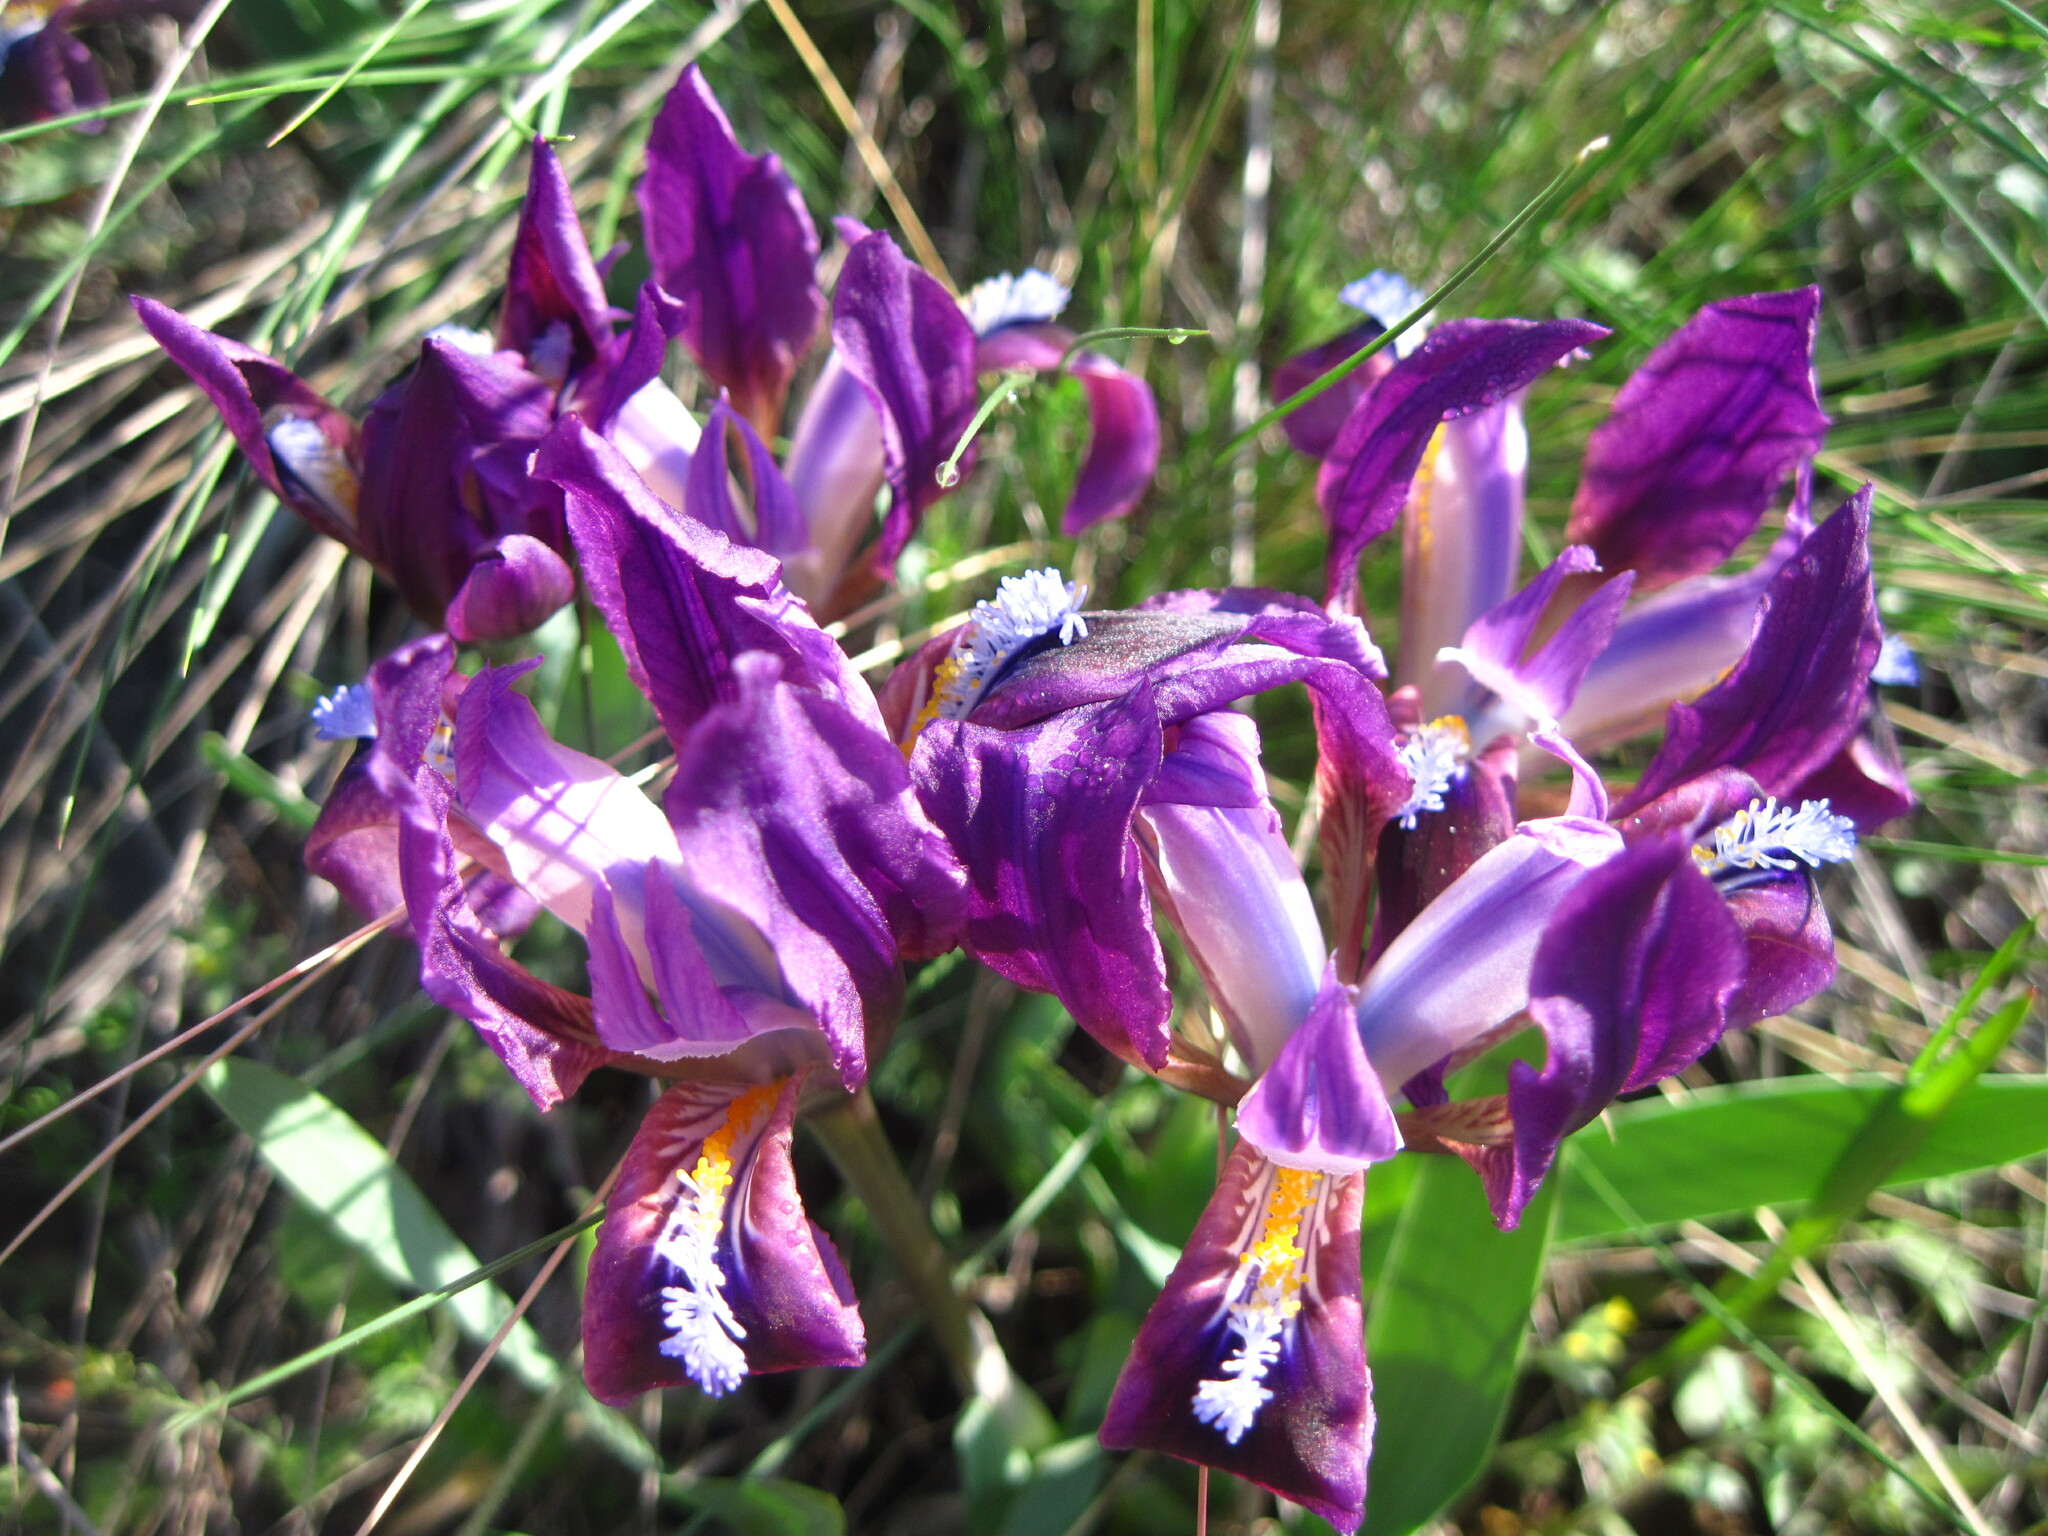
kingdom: Plantae
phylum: Tracheophyta
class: Liliopsida
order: Asparagales
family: Iridaceae
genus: Iris
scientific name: Iris pumila
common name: Dwarf iris
